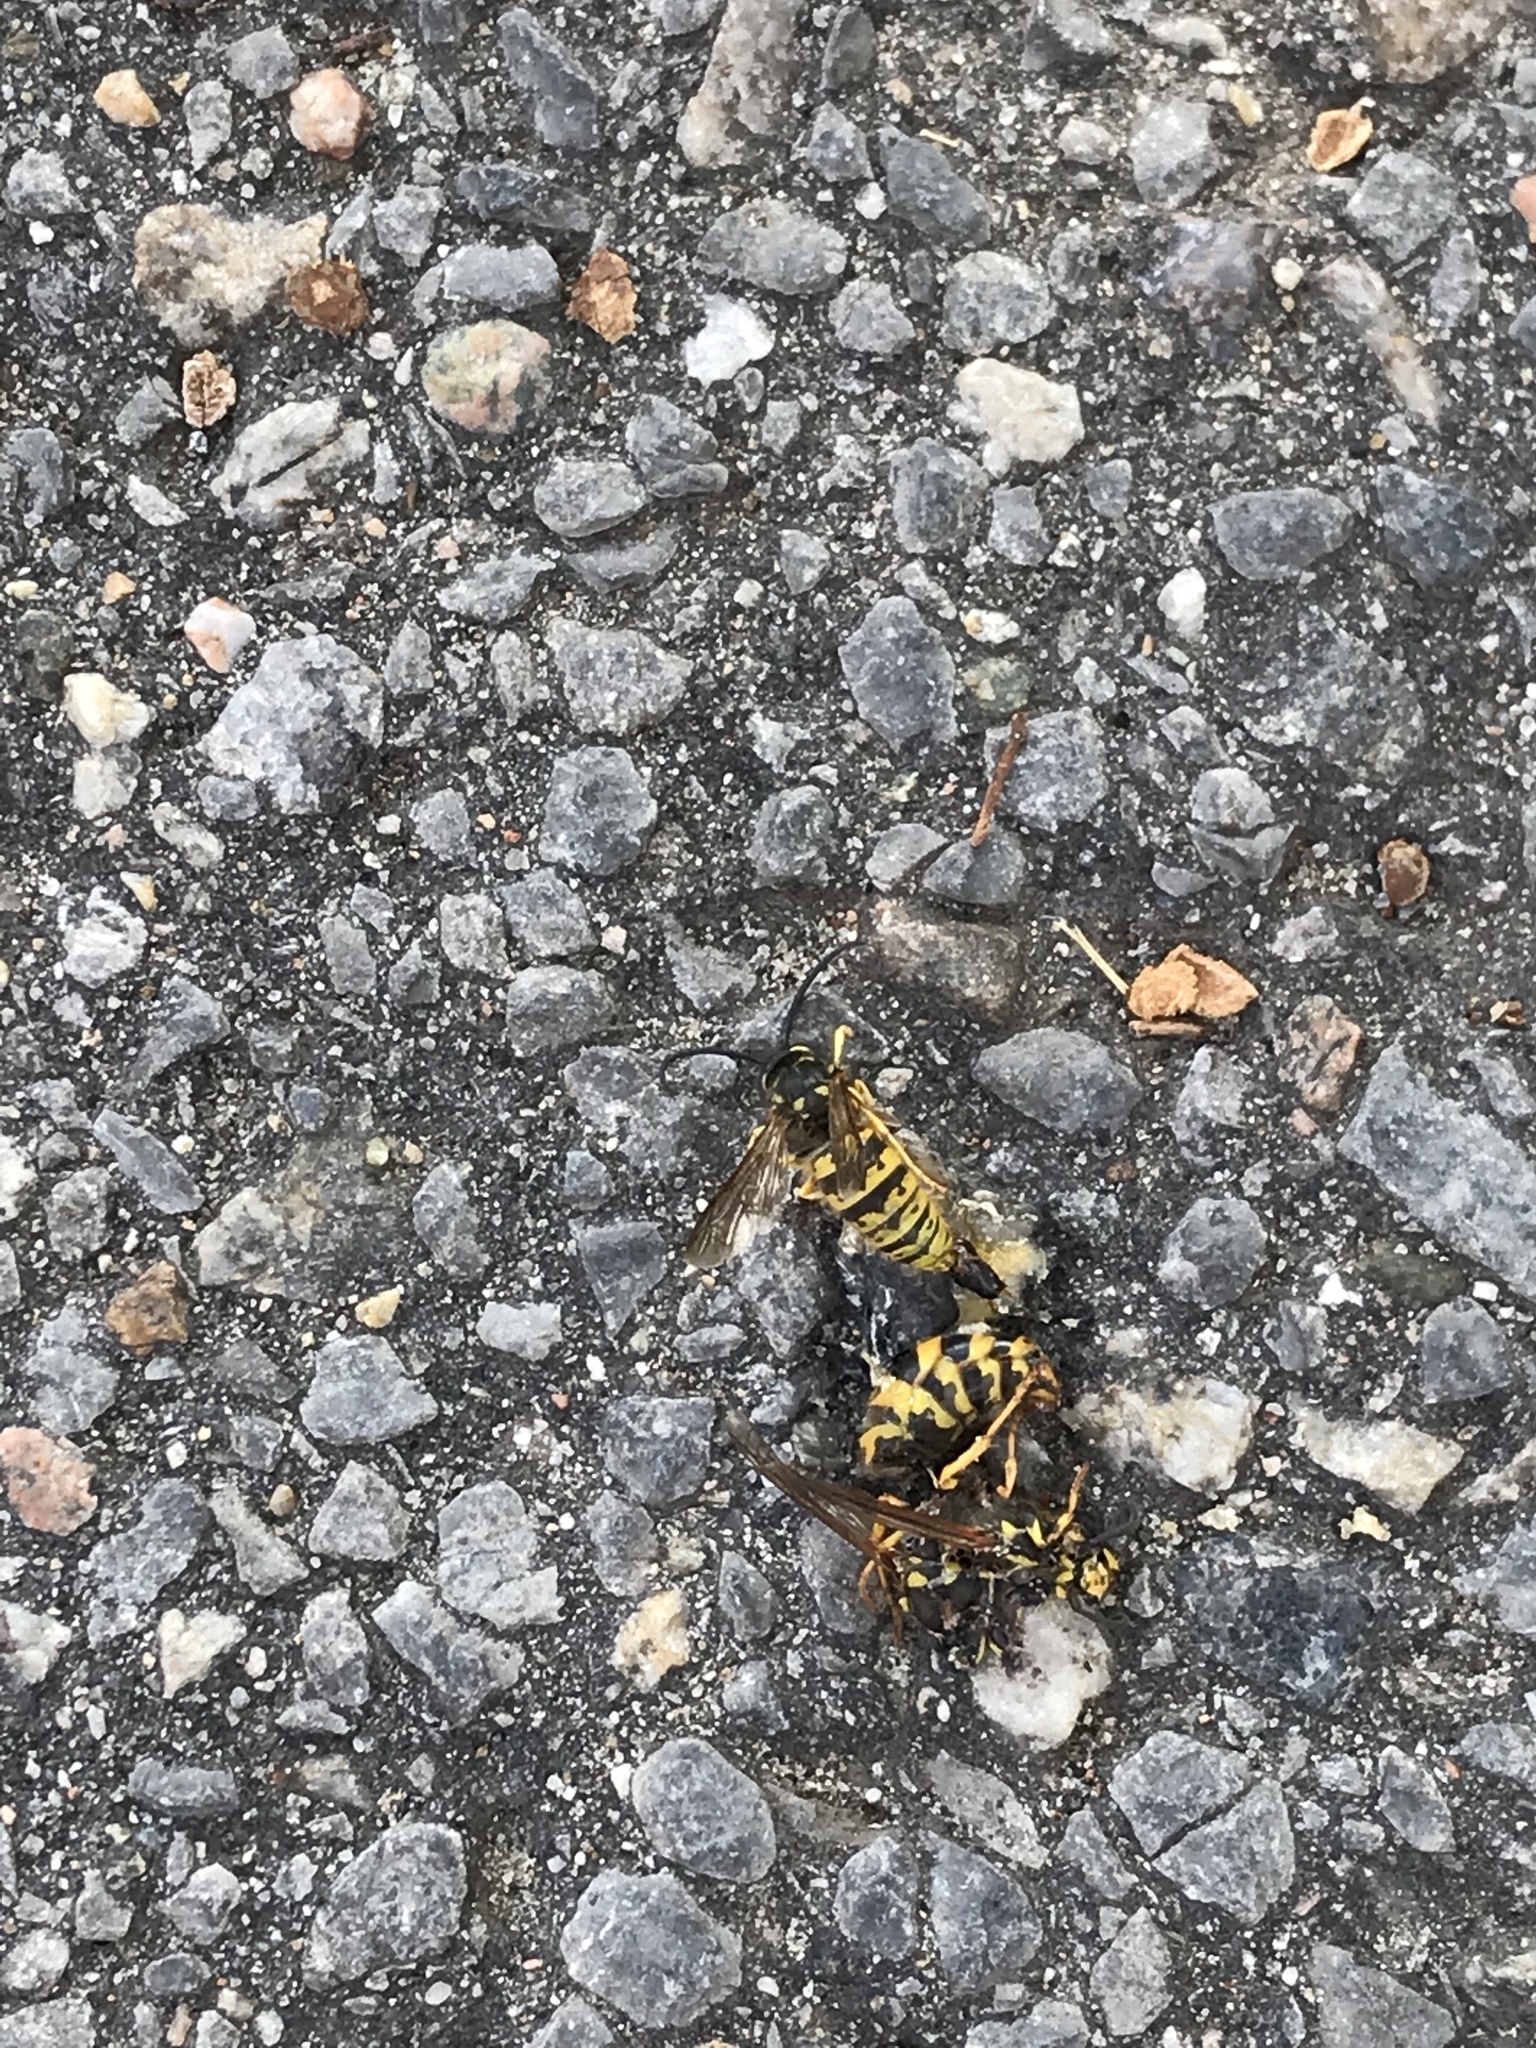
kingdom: Animalia
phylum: Arthropoda
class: Insecta
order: Hymenoptera
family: Vespidae
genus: Vespula
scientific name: Vespula germanica
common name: German wasp
